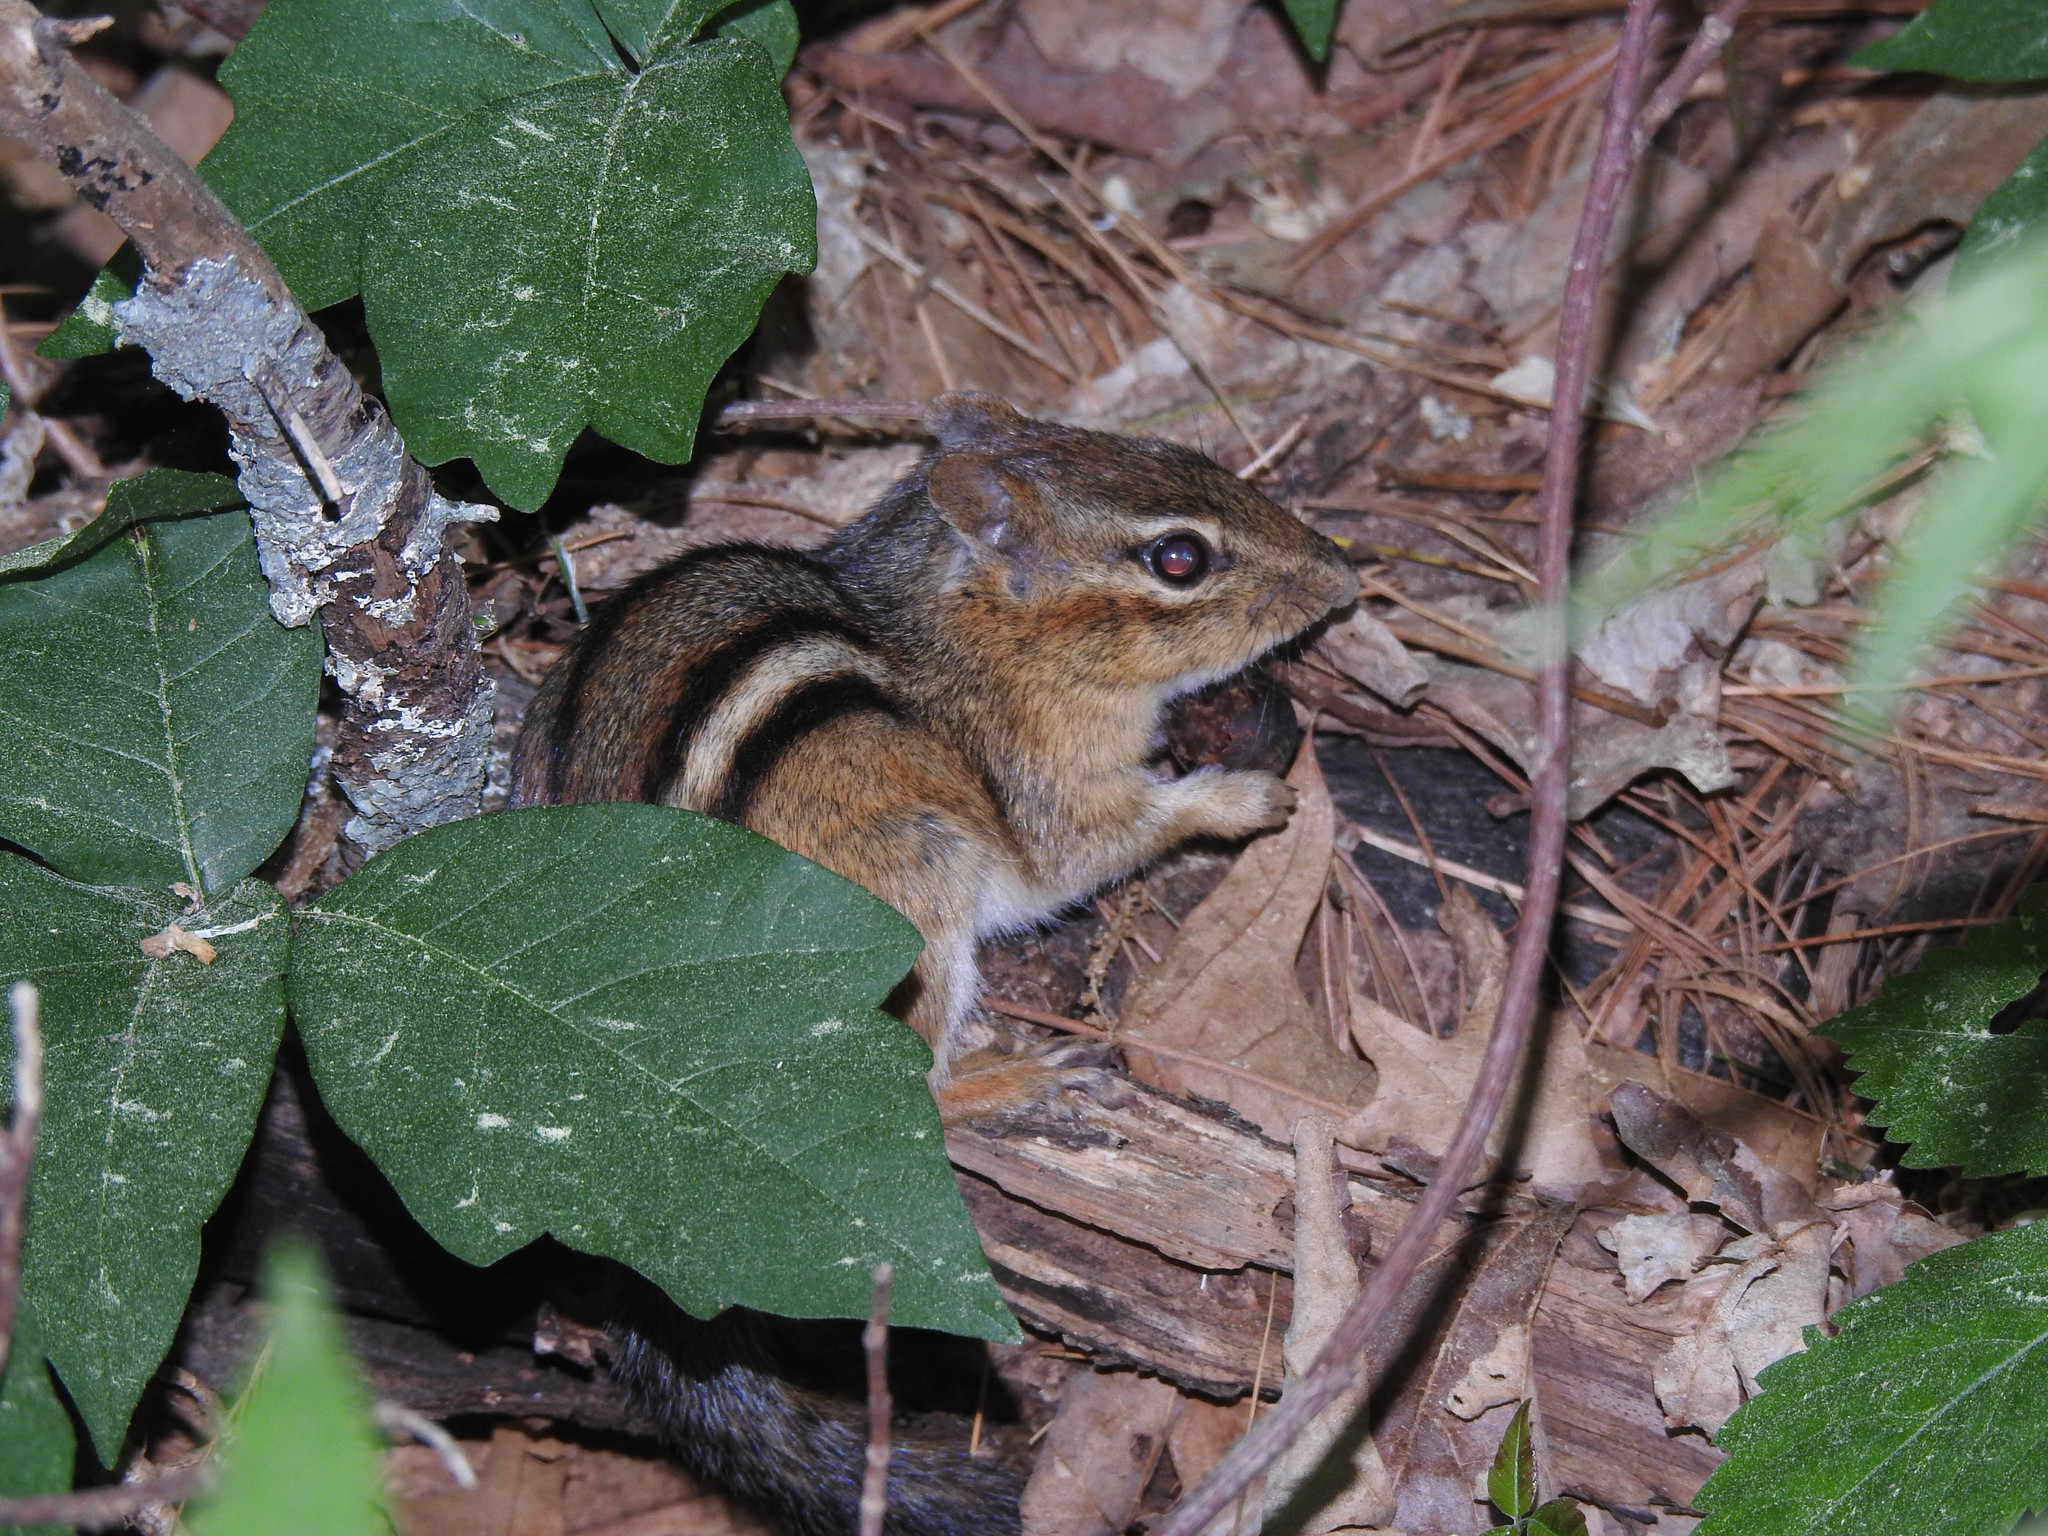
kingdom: Animalia
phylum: Chordata
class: Mammalia
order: Rodentia
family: Sciuridae
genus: Tamias
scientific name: Tamias striatus
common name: Eastern chipmunk
